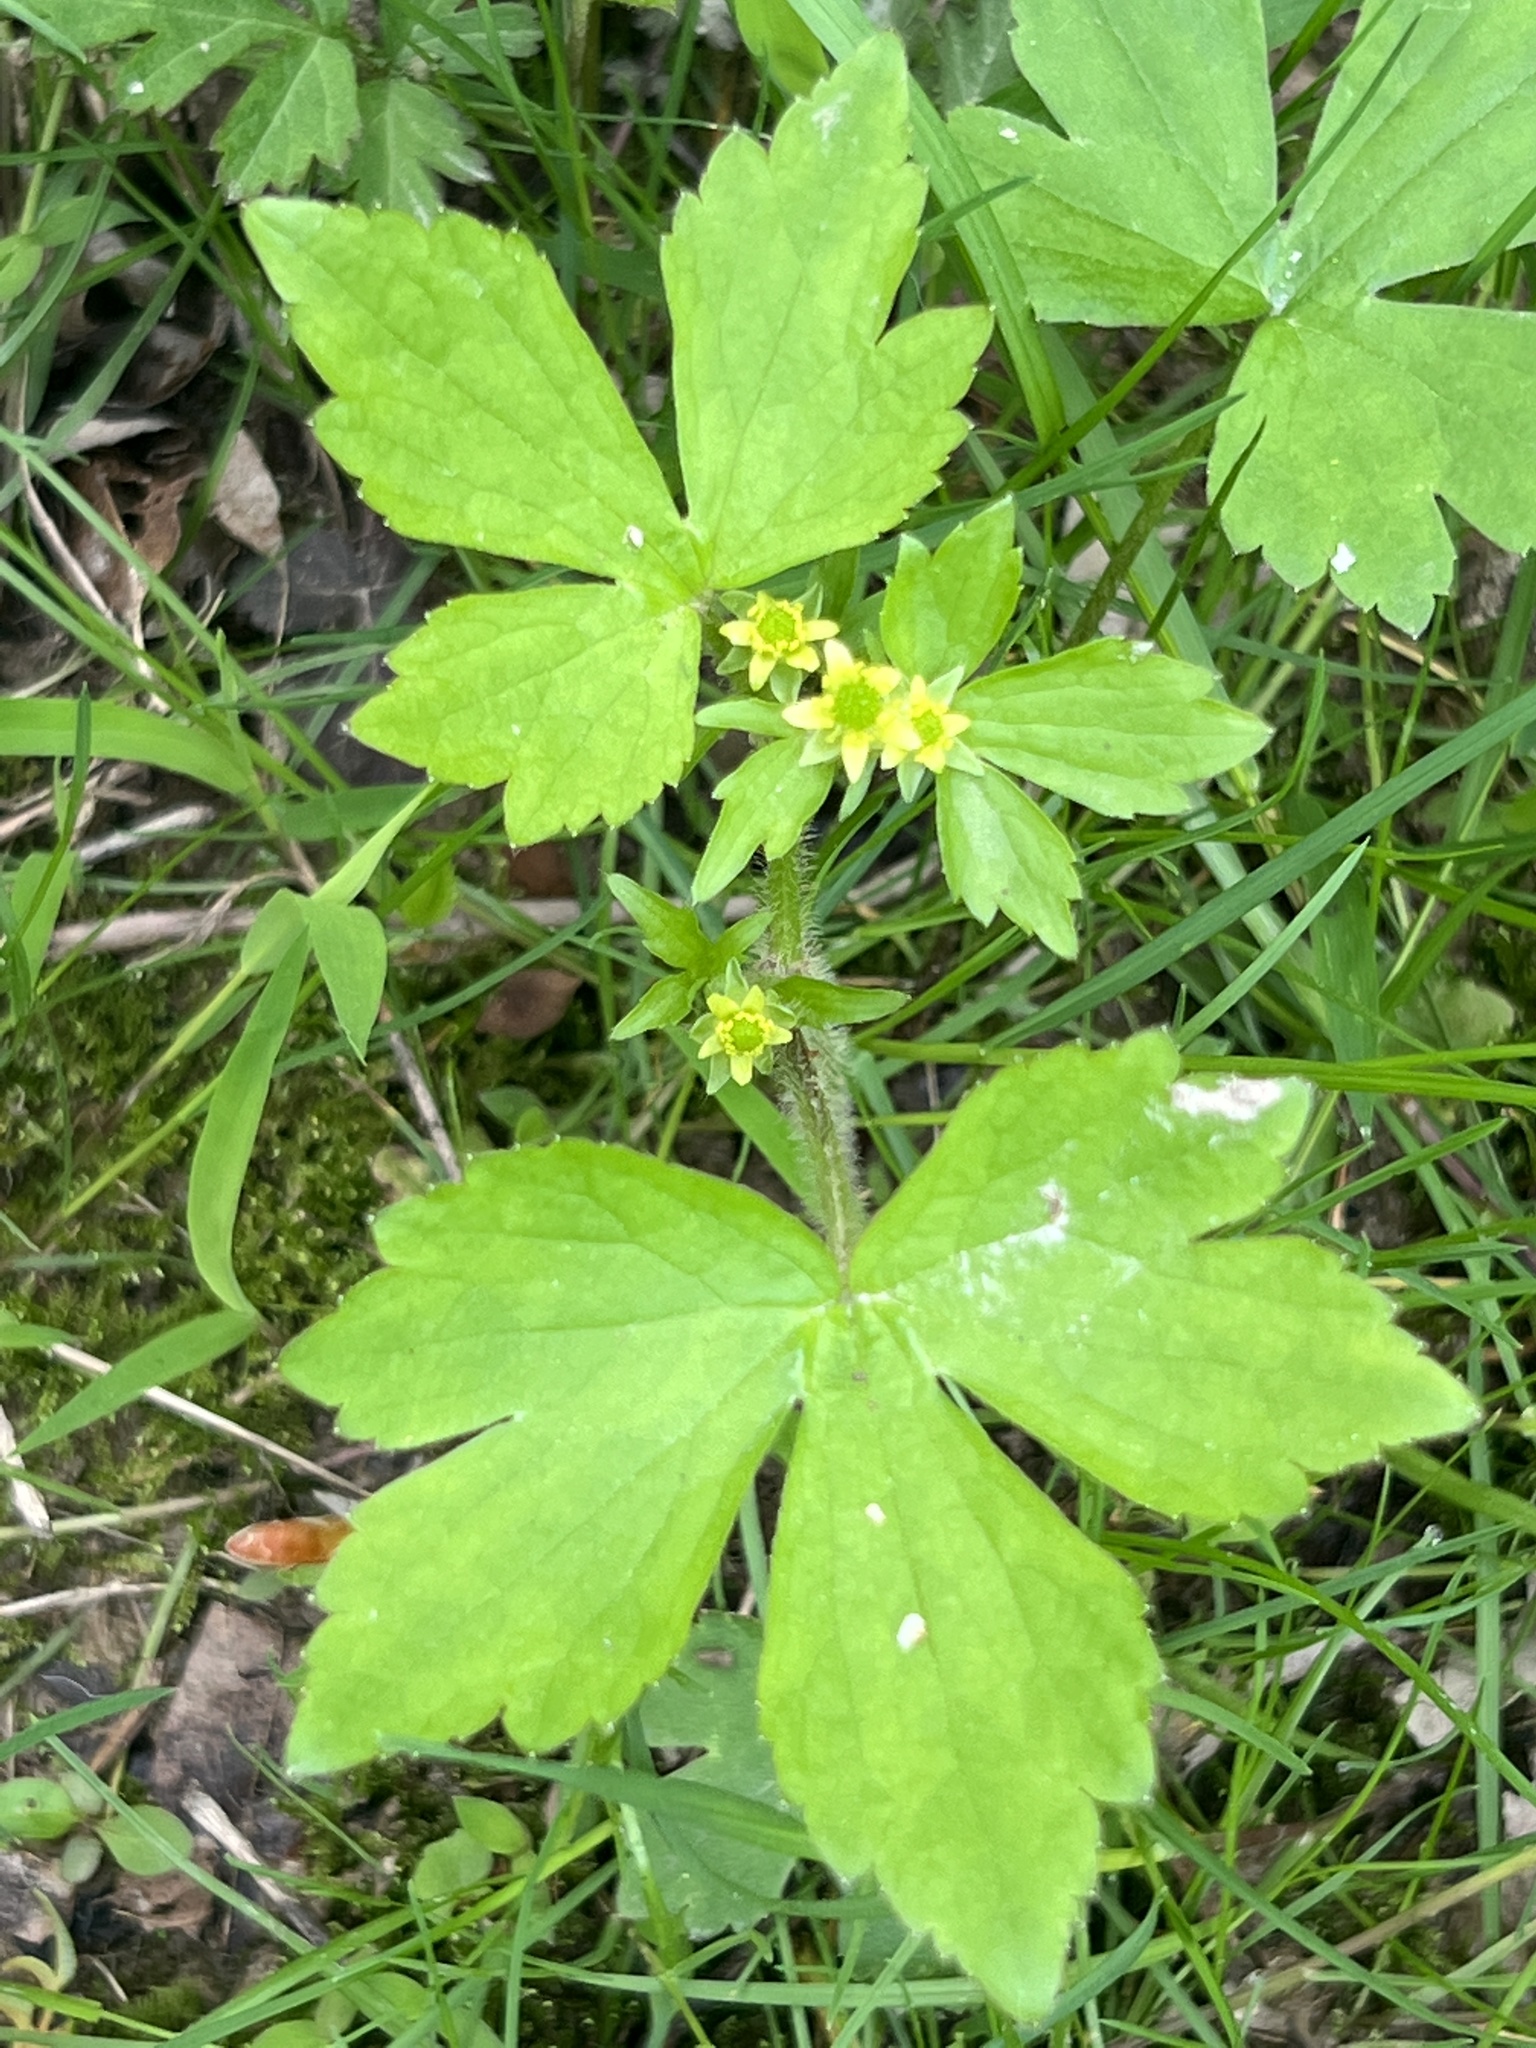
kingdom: Plantae
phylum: Tracheophyta
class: Magnoliopsida
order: Ranunculales
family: Ranunculaceae
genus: Ranunculus
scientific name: Ranunculus recurvatus
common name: Blisterwort
